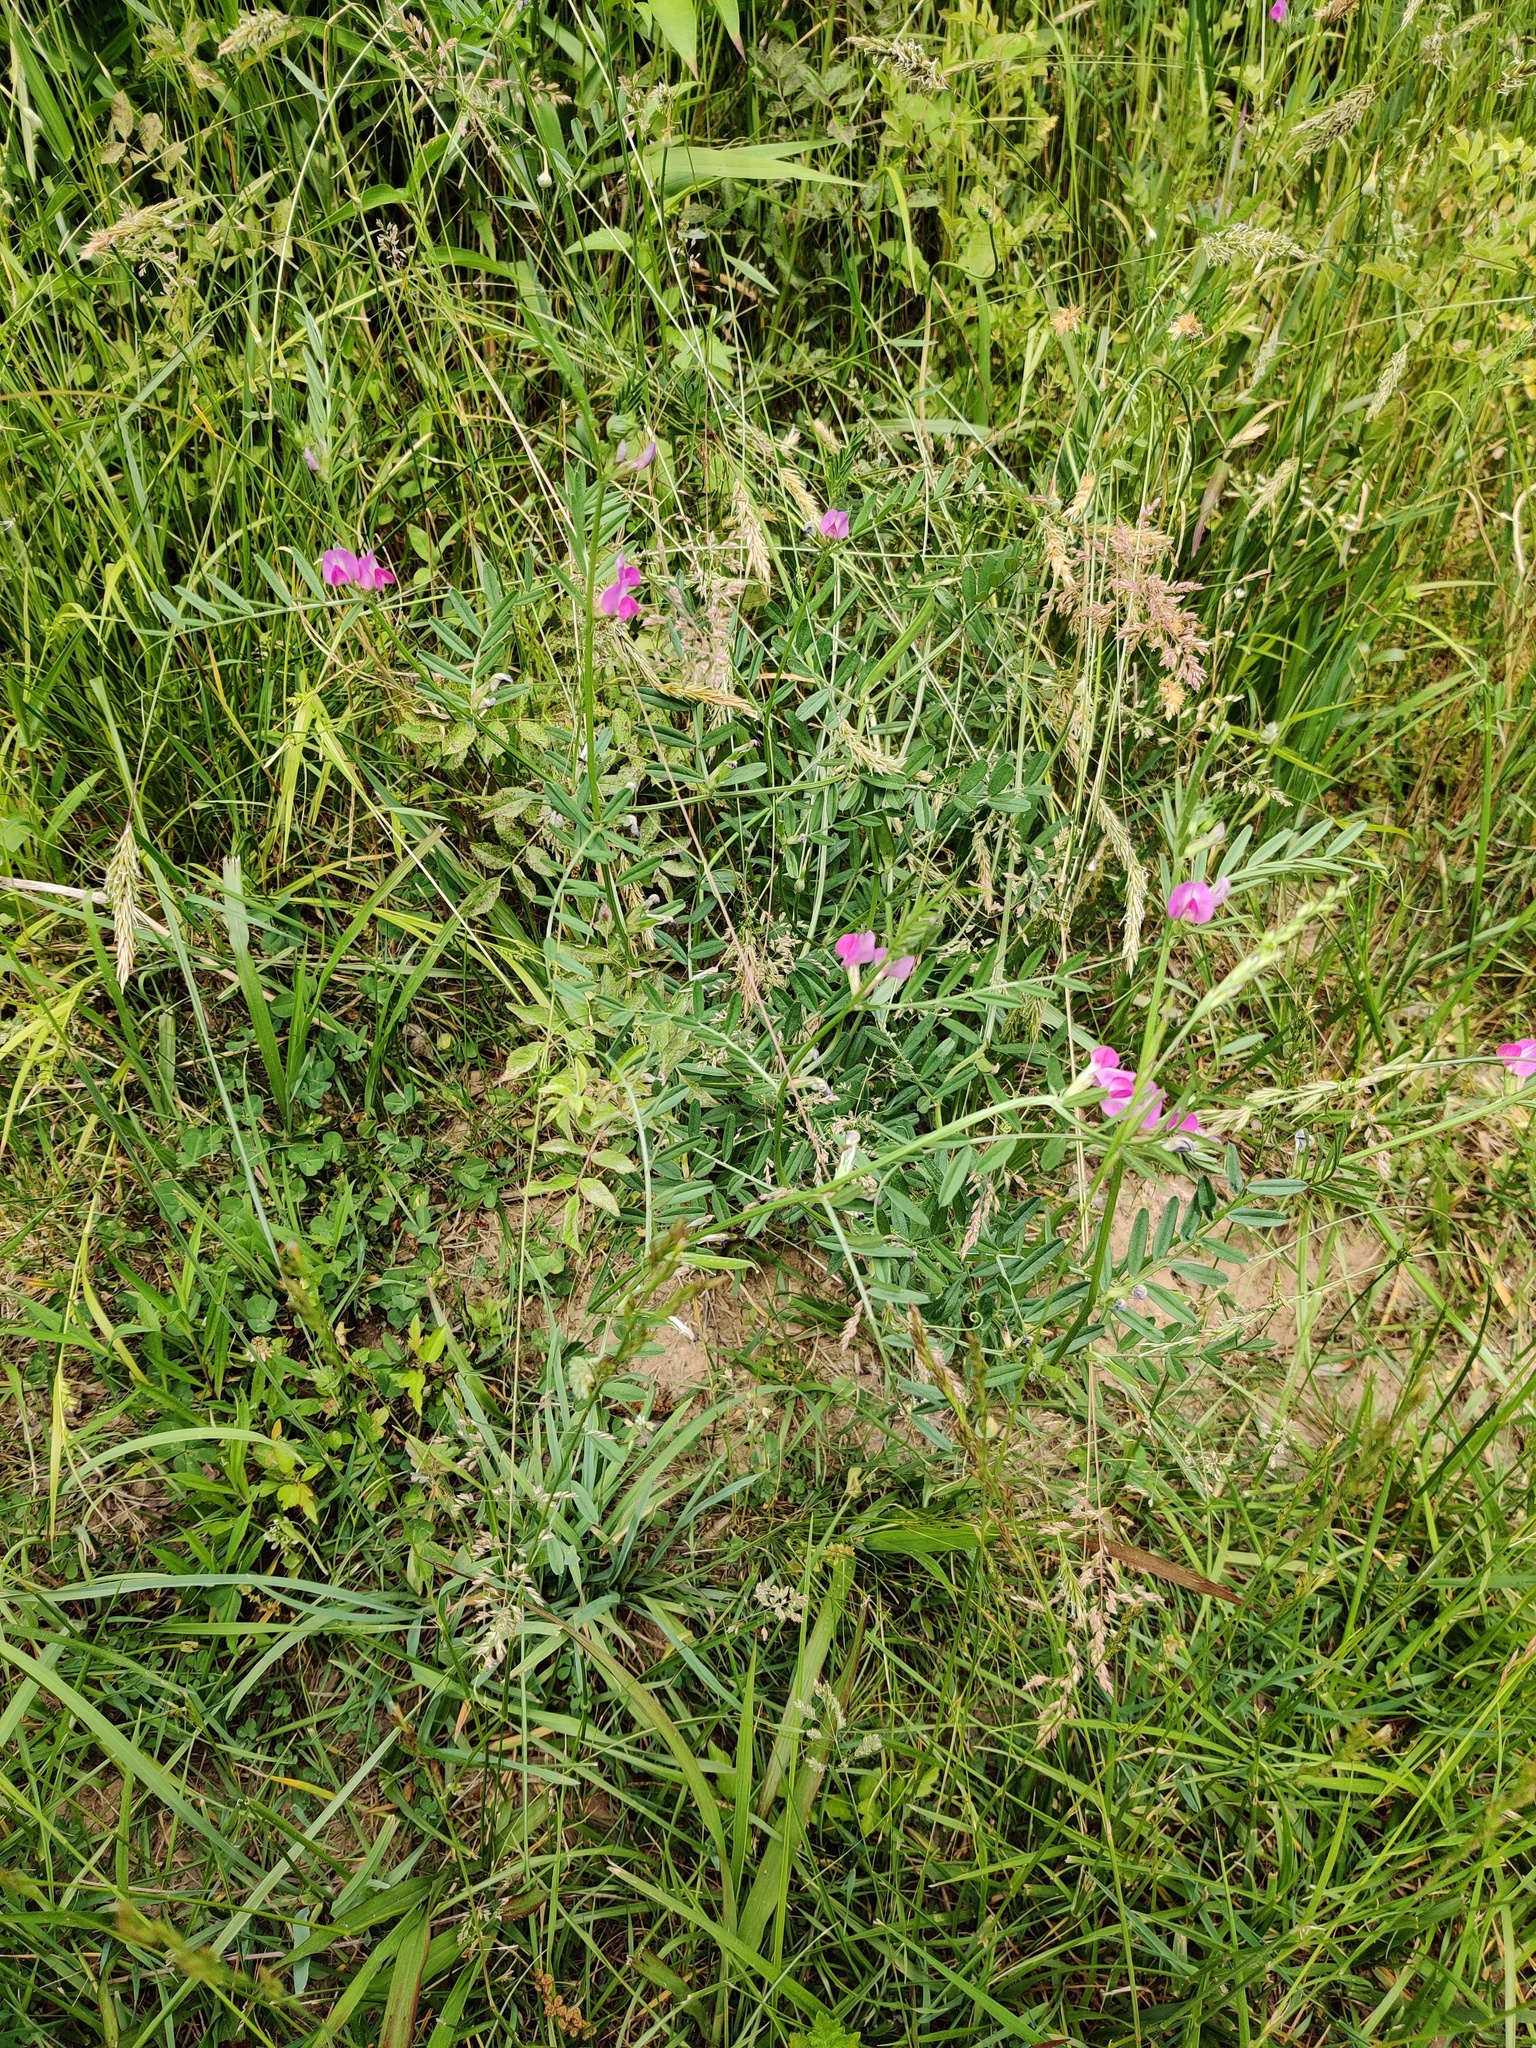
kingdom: Plantae
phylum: Tracheophyta
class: Magnoliopsida
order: Fabales
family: Fabaceae
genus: Vicia
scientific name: Vicia sativa
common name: Garden vetch
